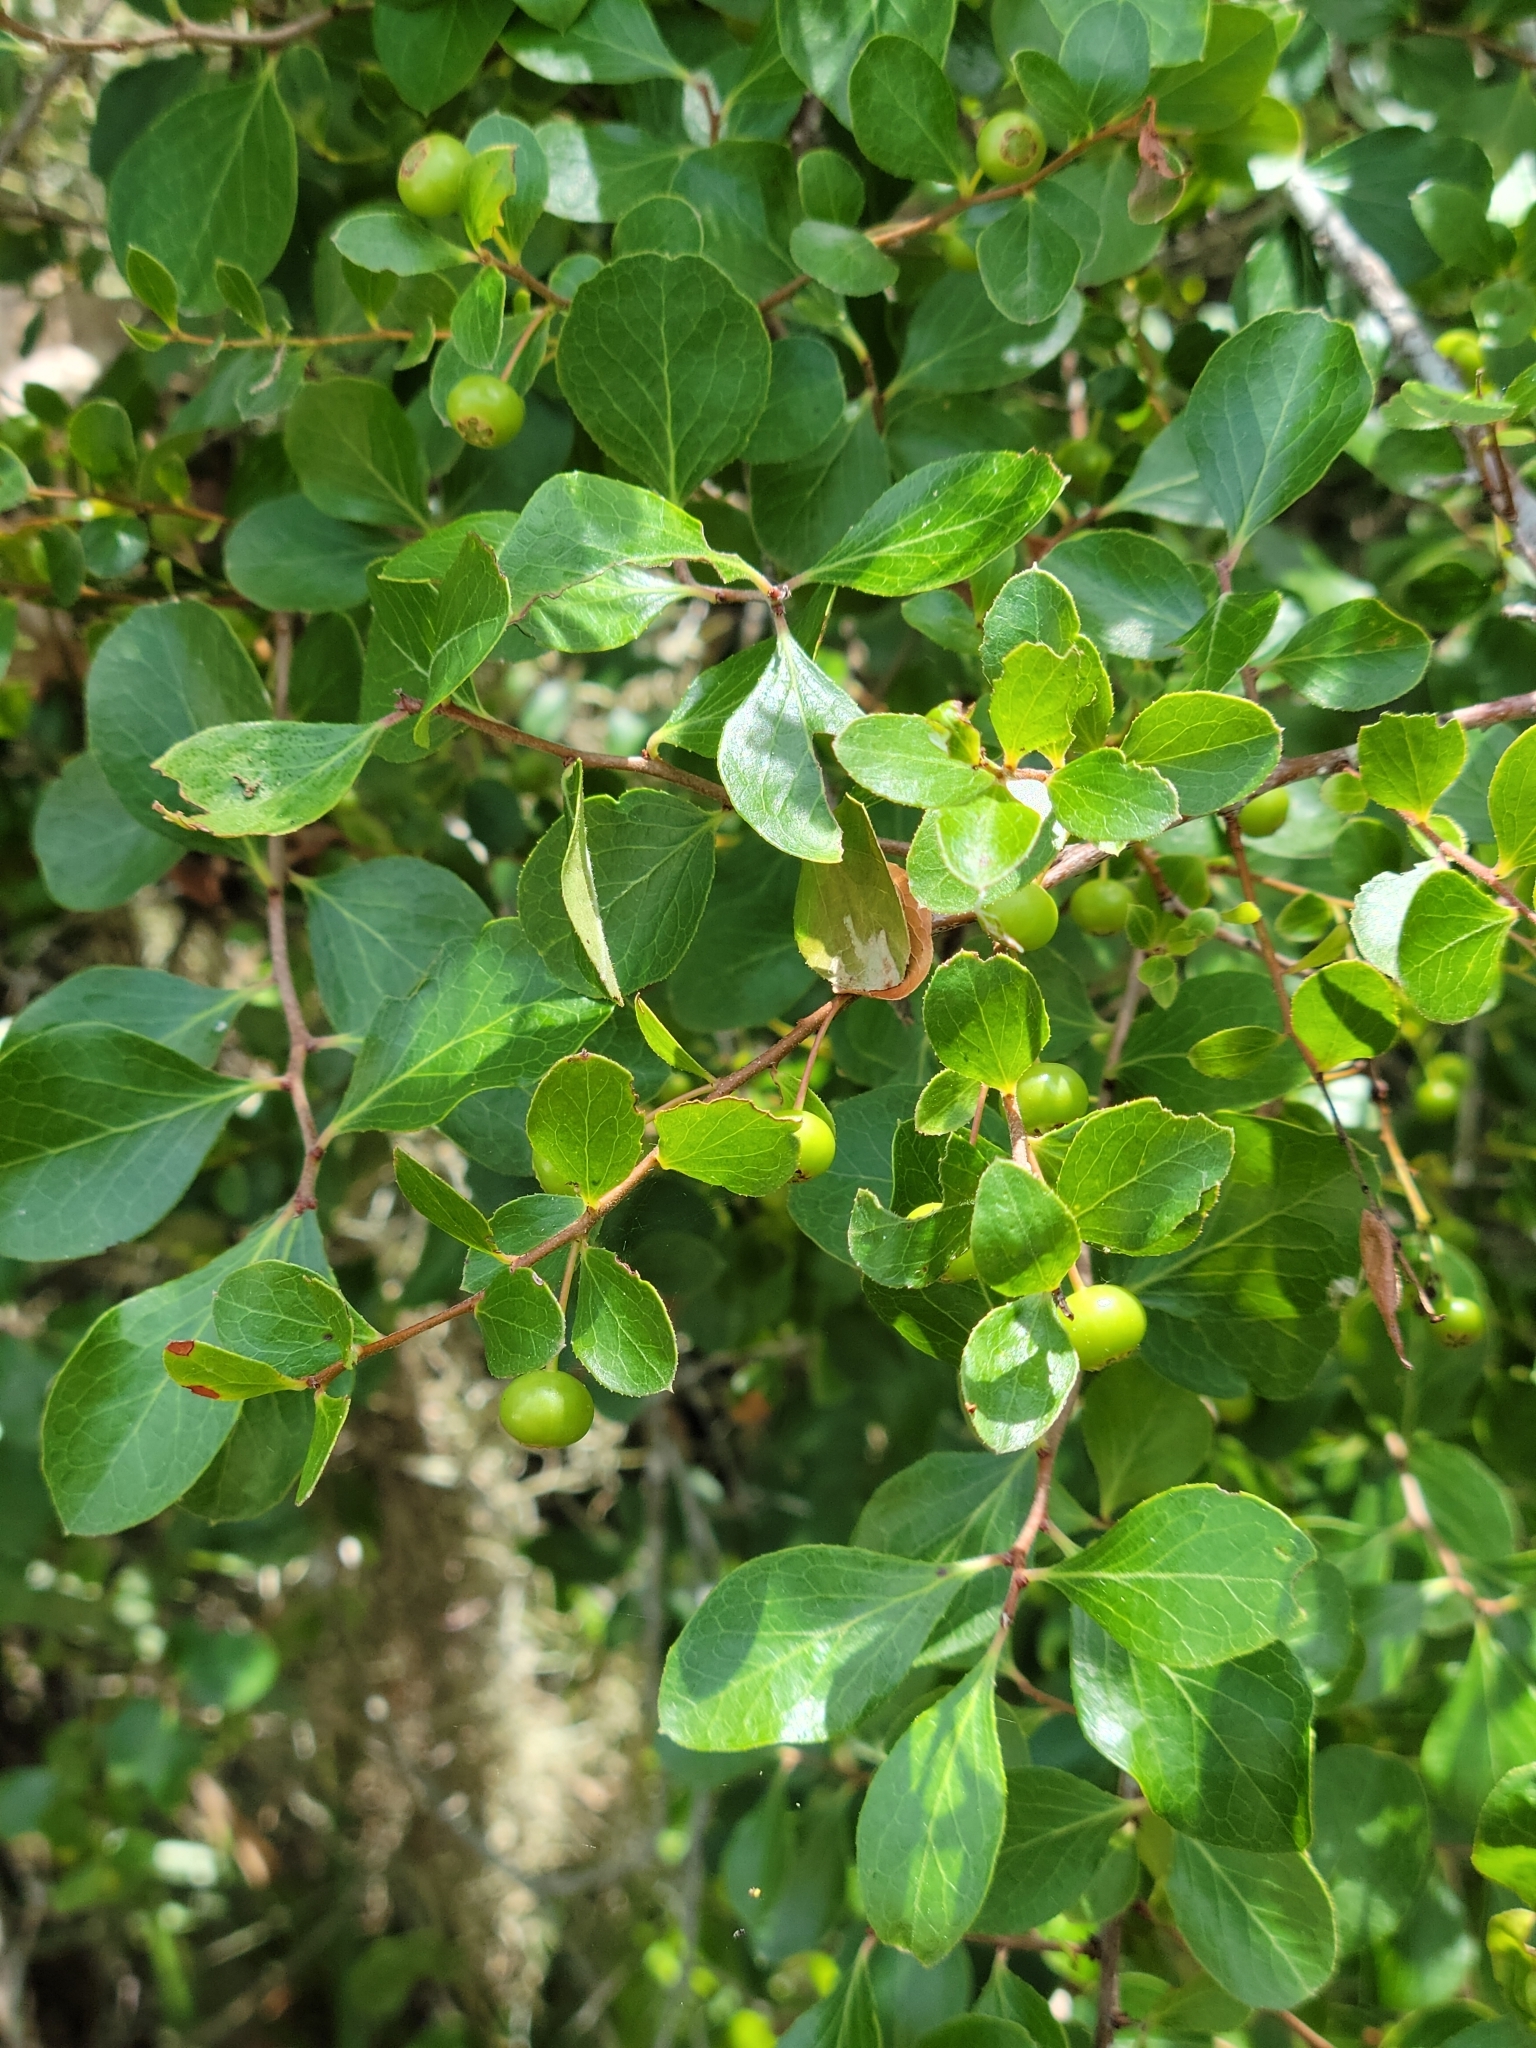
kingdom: Plantae
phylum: Tracheophyta
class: Magnoliopsida
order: Ericales
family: Ericaceae
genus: Vaccinium
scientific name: Vaccinium arboreum
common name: Farkleberry
